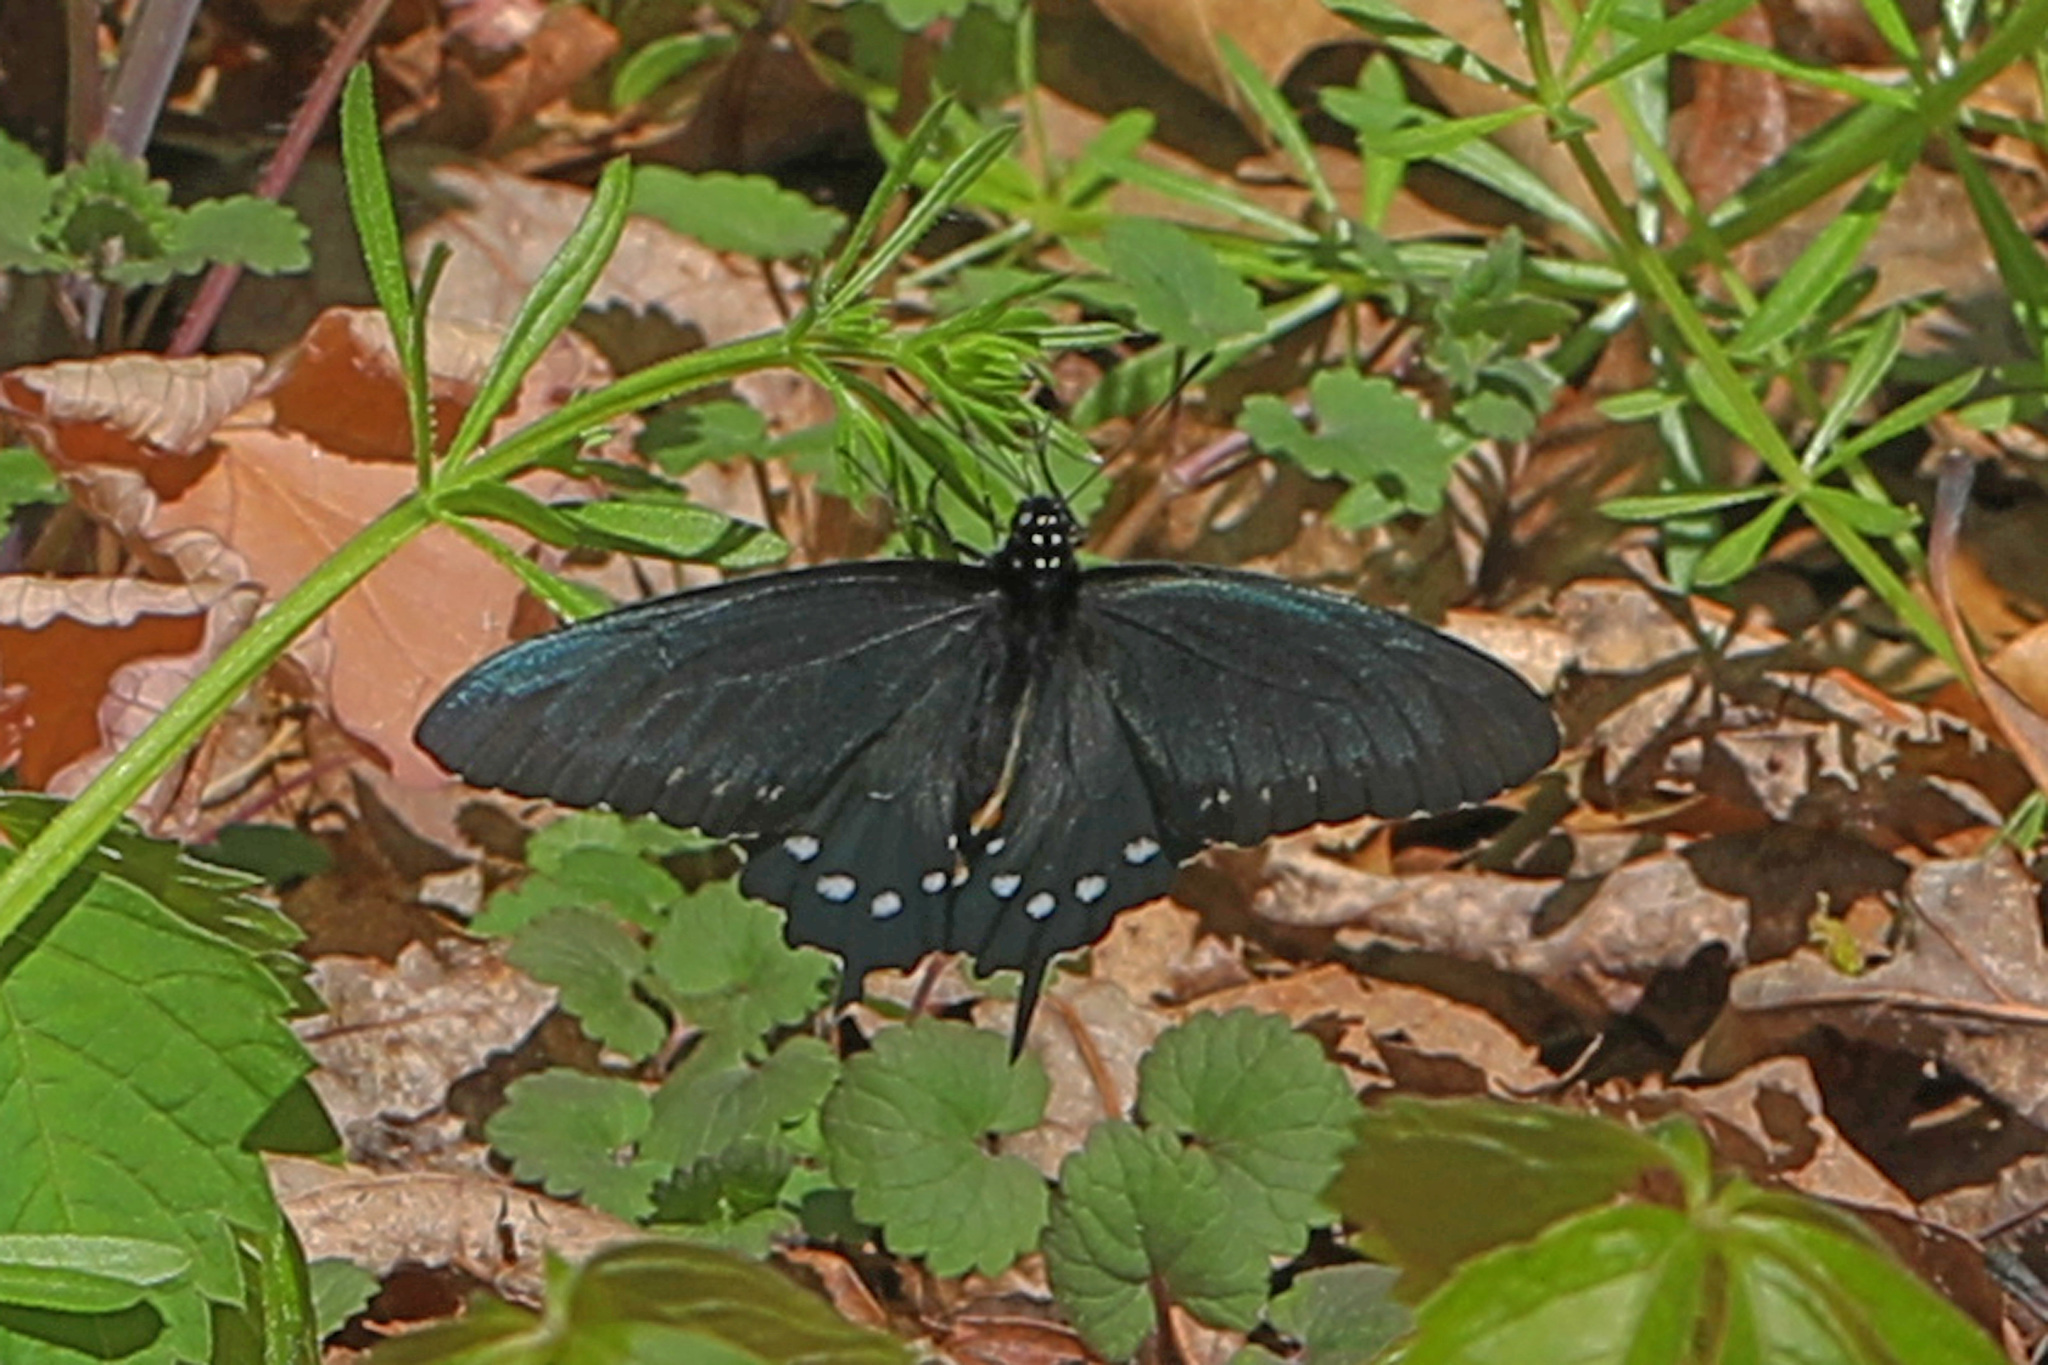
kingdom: Animalia
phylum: Arthropoda
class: Insecta
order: Lepidoptera
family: Papilionidae
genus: Battus
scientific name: Battus philenor
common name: Pipevine swallowtail
